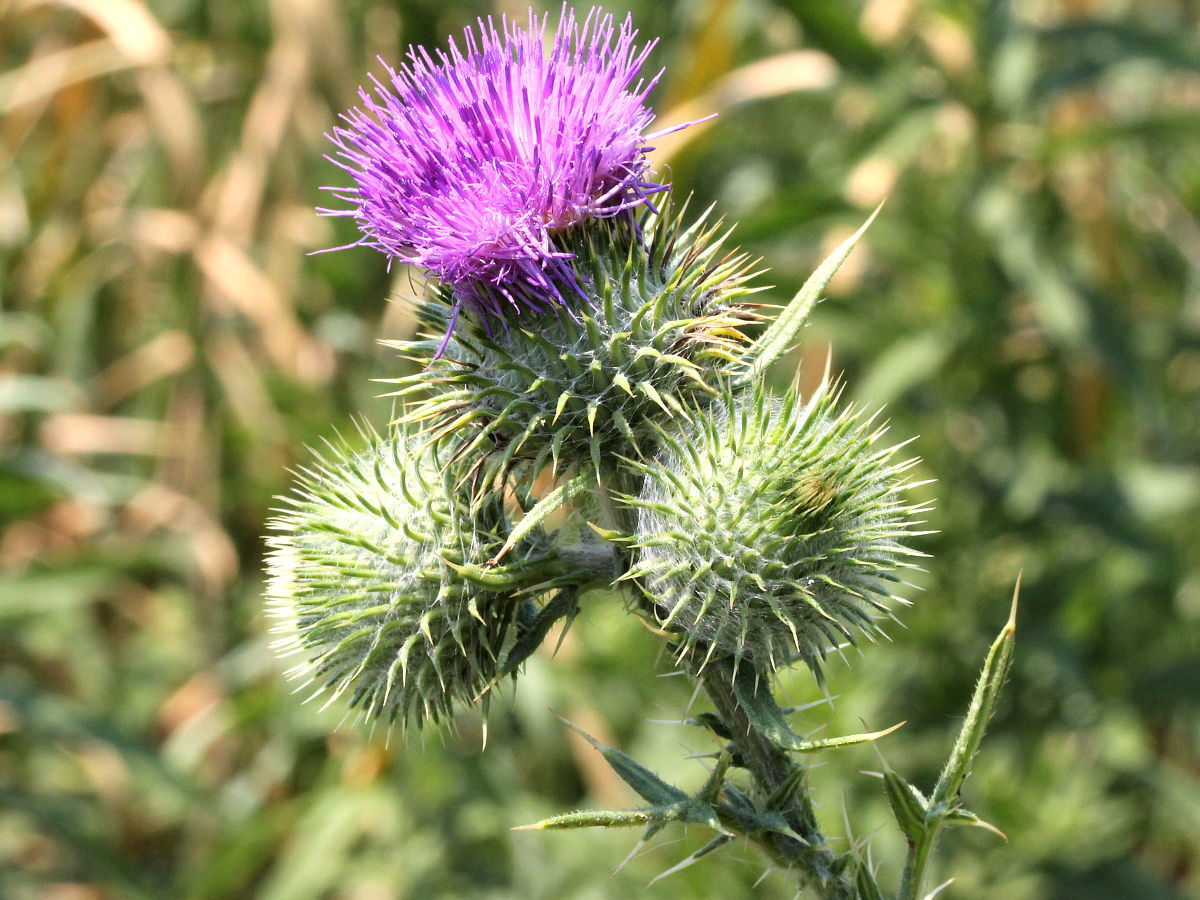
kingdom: Plantae
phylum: Tracheophyta
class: Magnoliopsida
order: Asterales
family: Asteraceae
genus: Cirsium
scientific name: Cirsium vulgare
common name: Bull thistle
